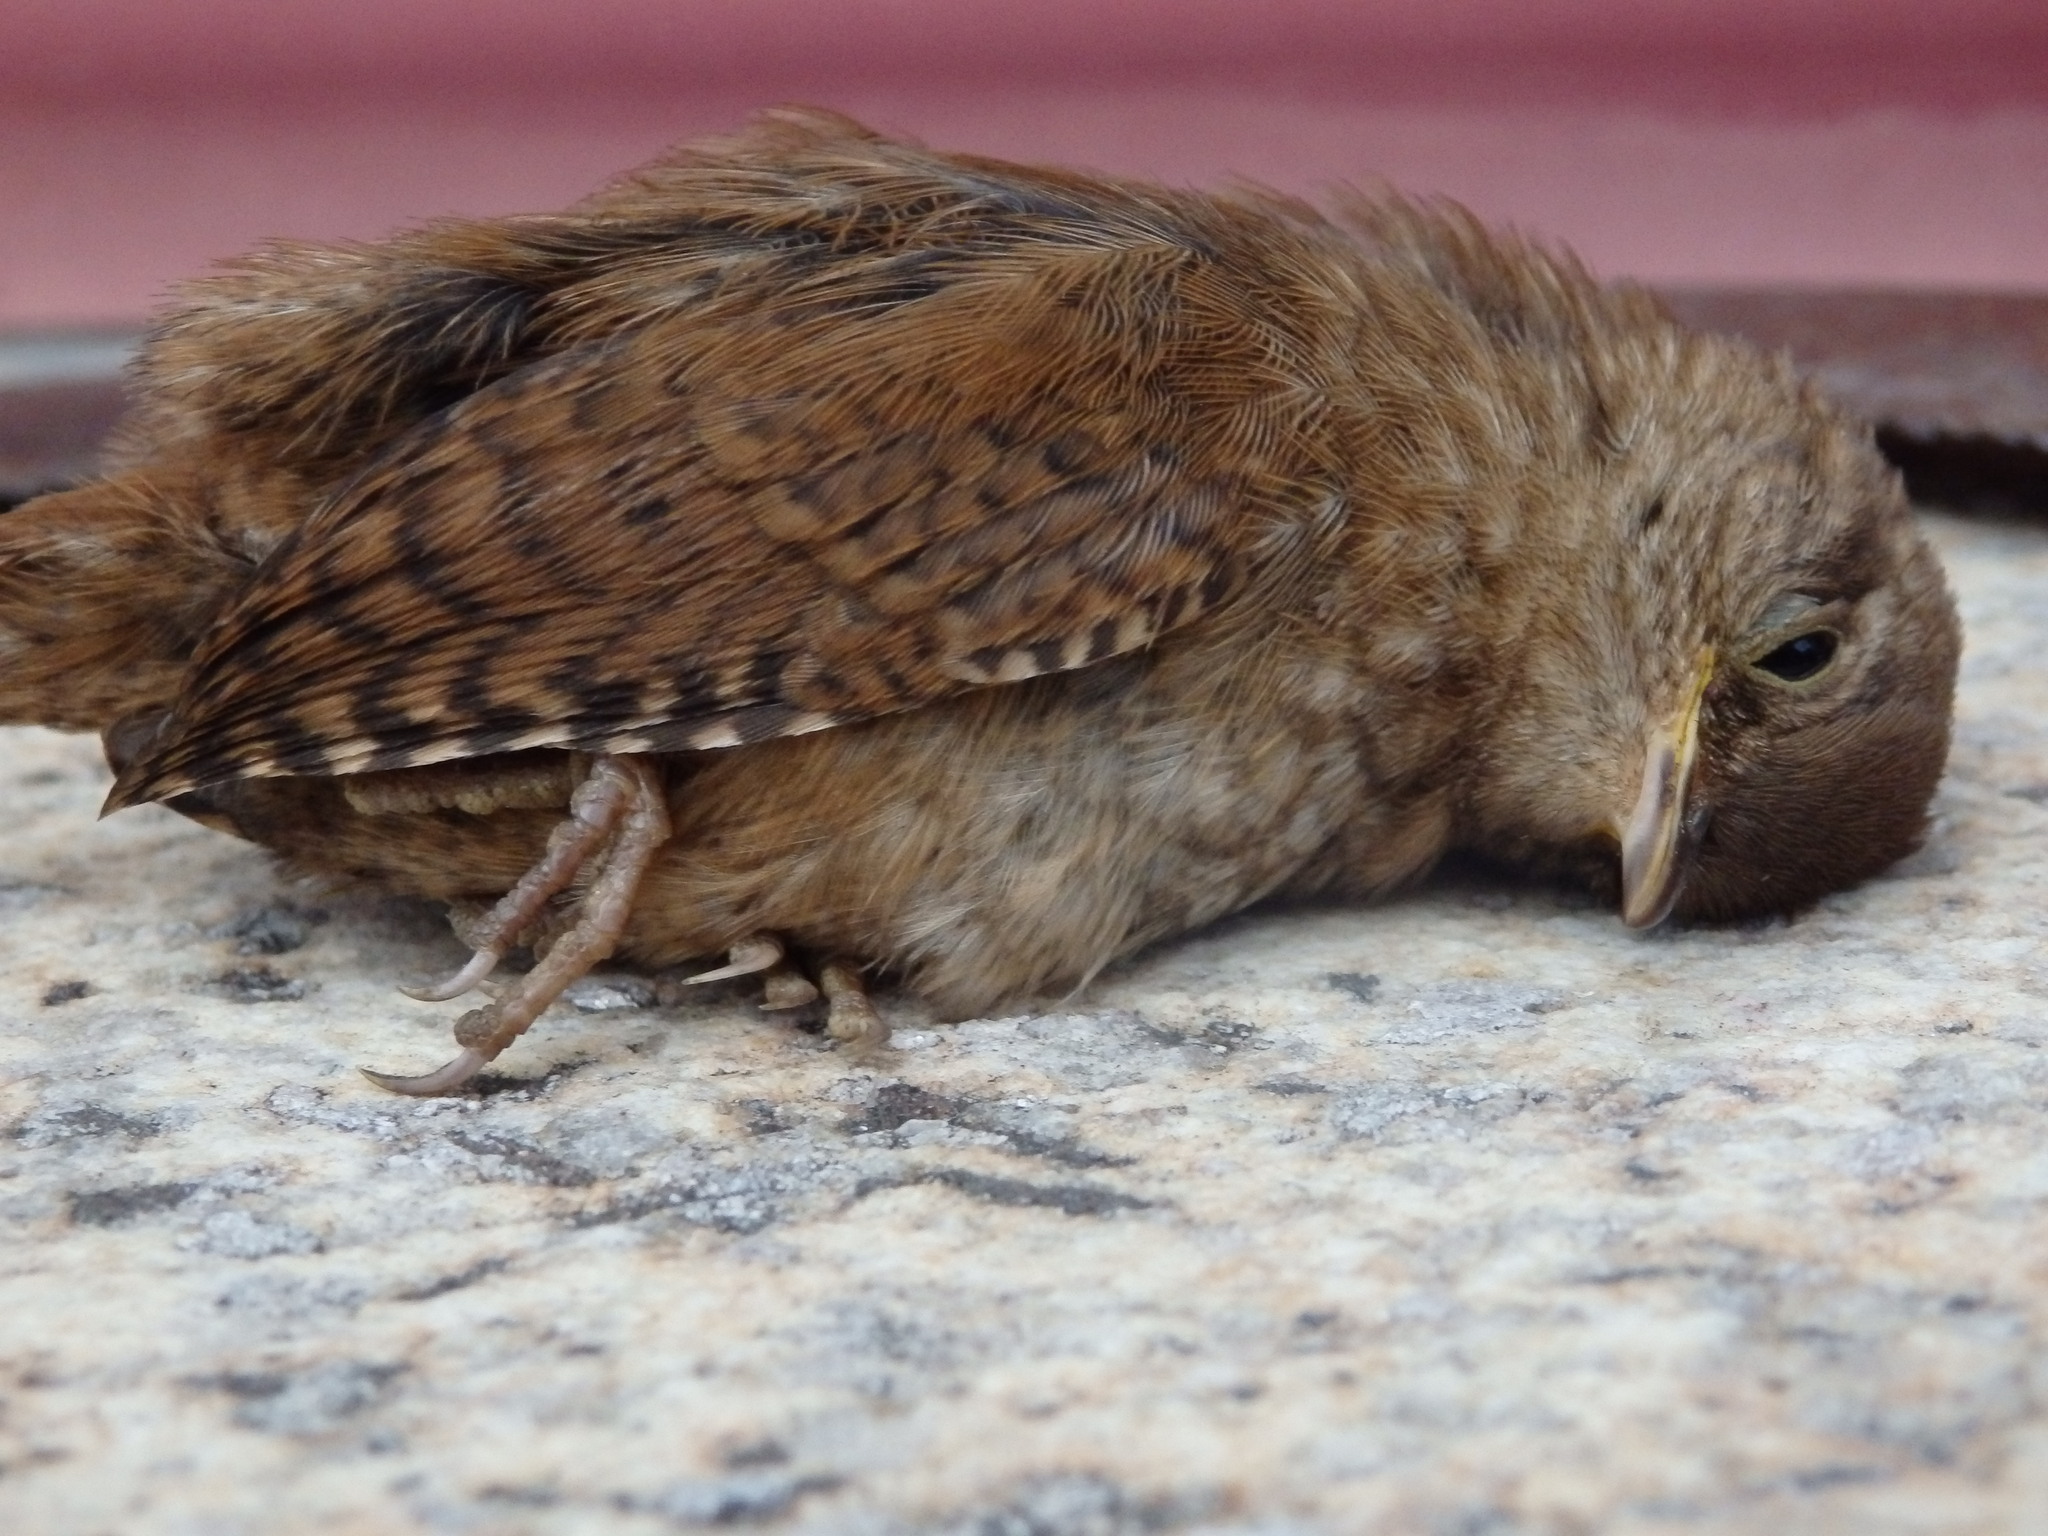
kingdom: Animalia
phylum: Chordata
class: Aves
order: Passeriformes
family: Troglodytidae
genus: Troglodytes
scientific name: Troglodytes troglodytes
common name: Eurasian wren
